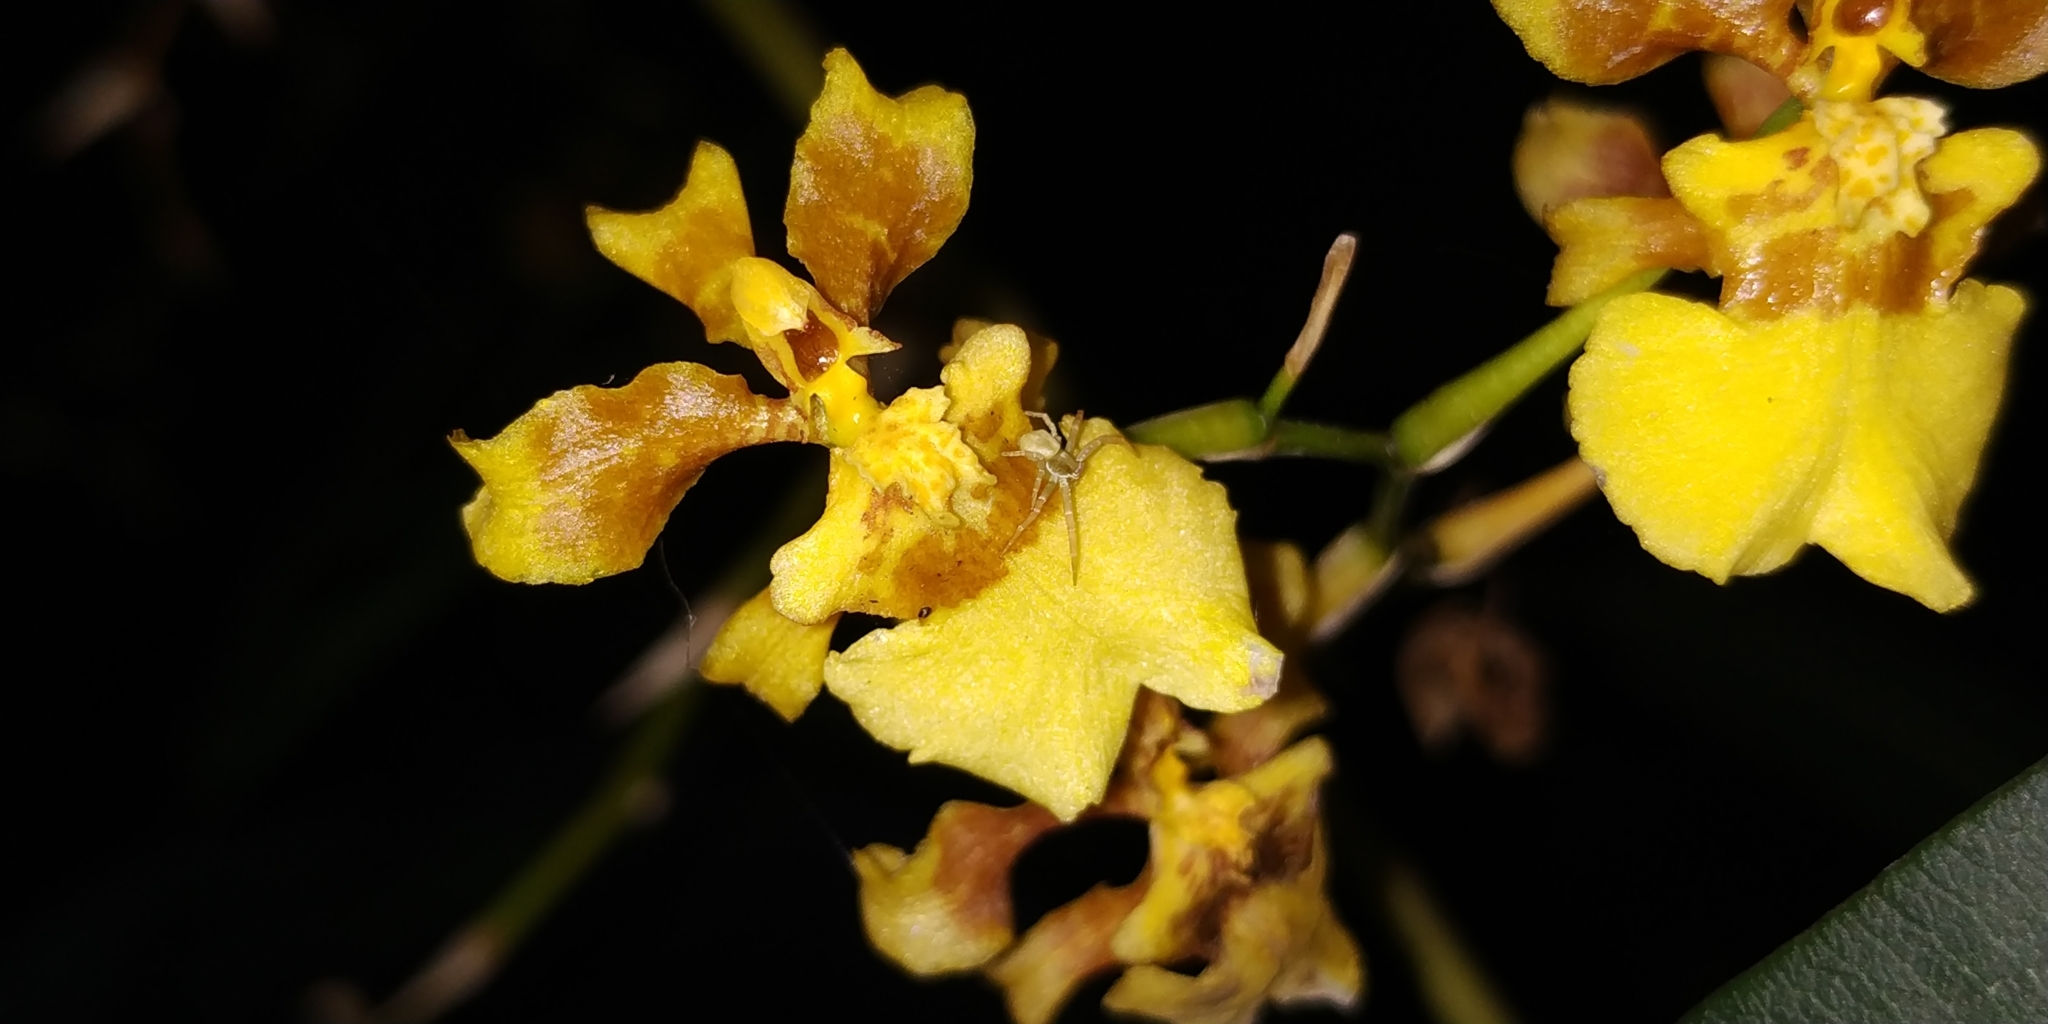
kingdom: Plantae
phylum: Tracheophyta
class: Liliopsida
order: Asparagales
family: Orchidaceae
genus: Oncidium
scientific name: Oncidium sphacelatum
